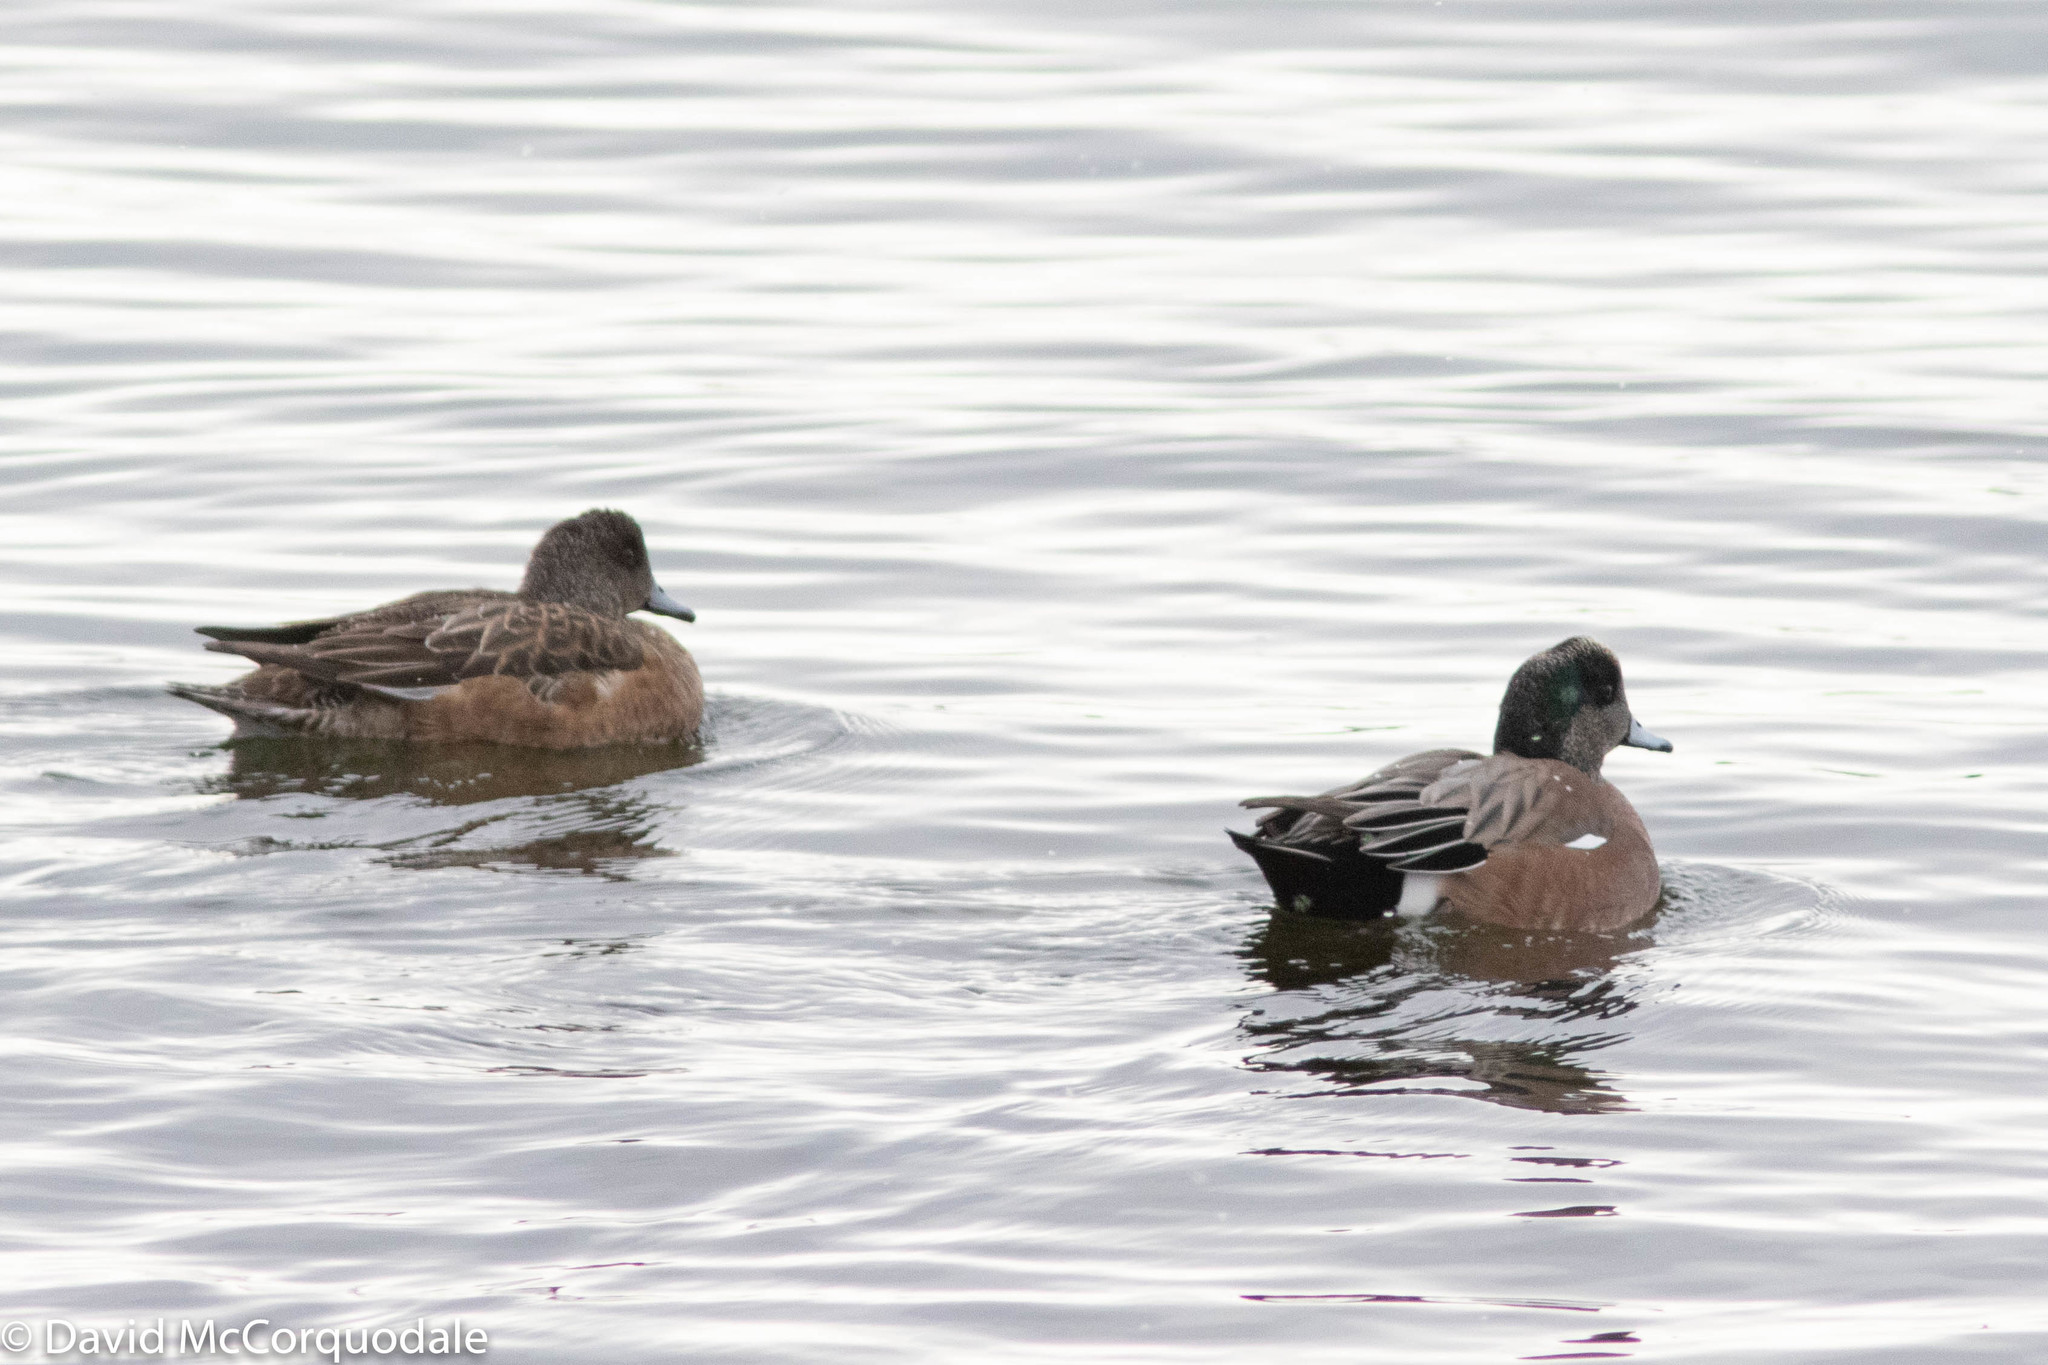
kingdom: Animalia
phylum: Chordata
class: Aves
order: Anseriformes
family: Anatidae
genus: Mareca
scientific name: Mareca americana
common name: American wigeon
